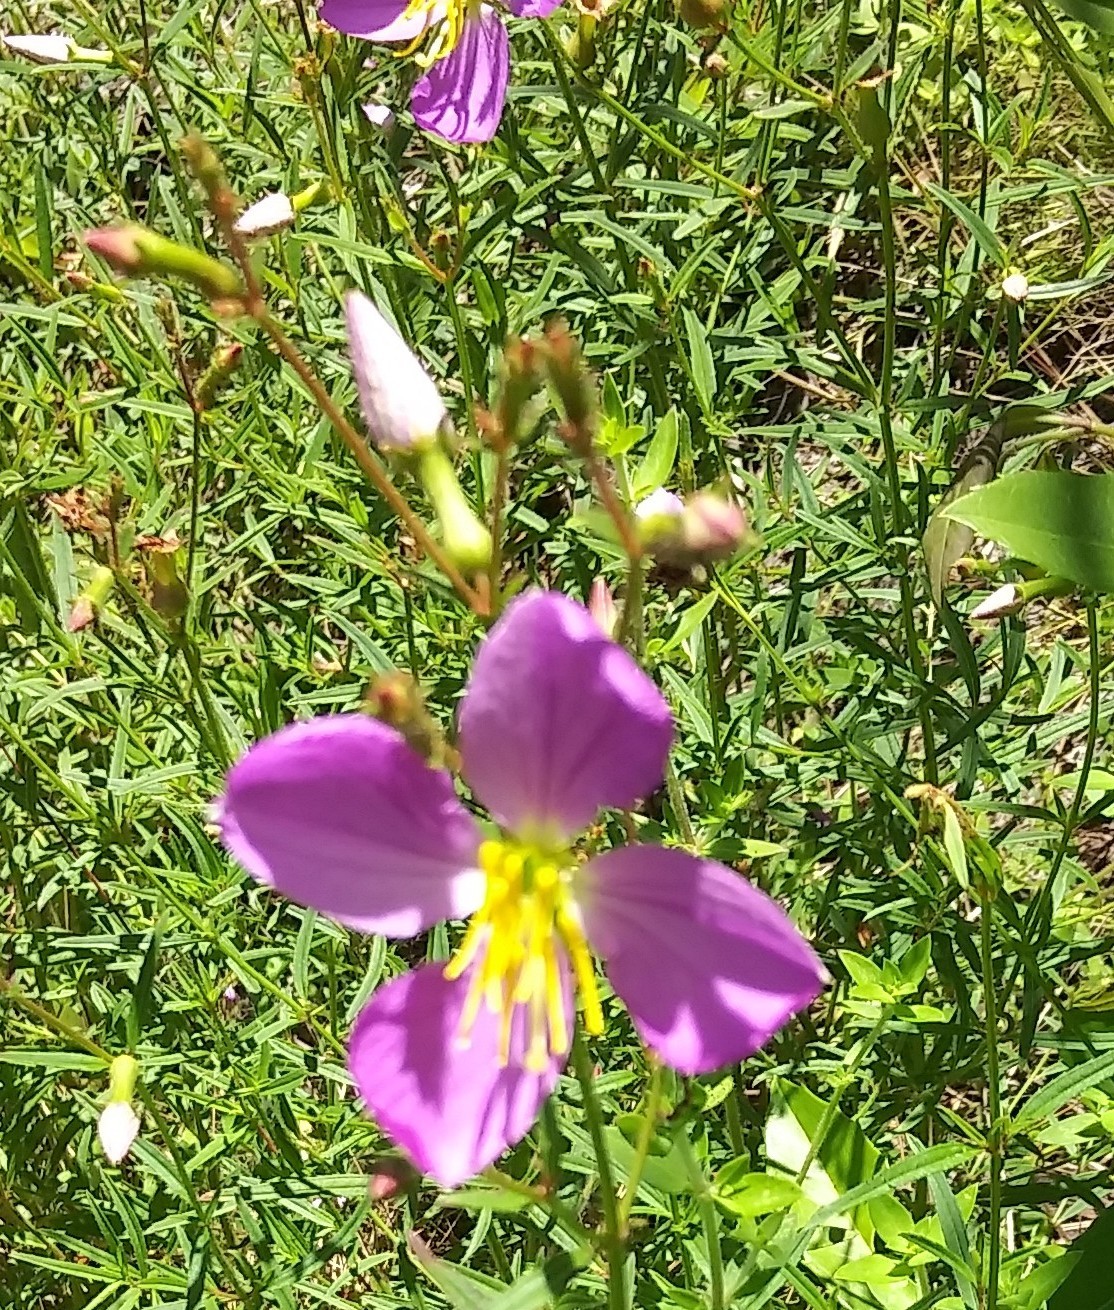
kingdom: Plantae
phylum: Tracheophyta
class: Magnoliopsida
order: Myrtales
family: Melastomataceae
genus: Rhexia
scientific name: Rhexia nashii
